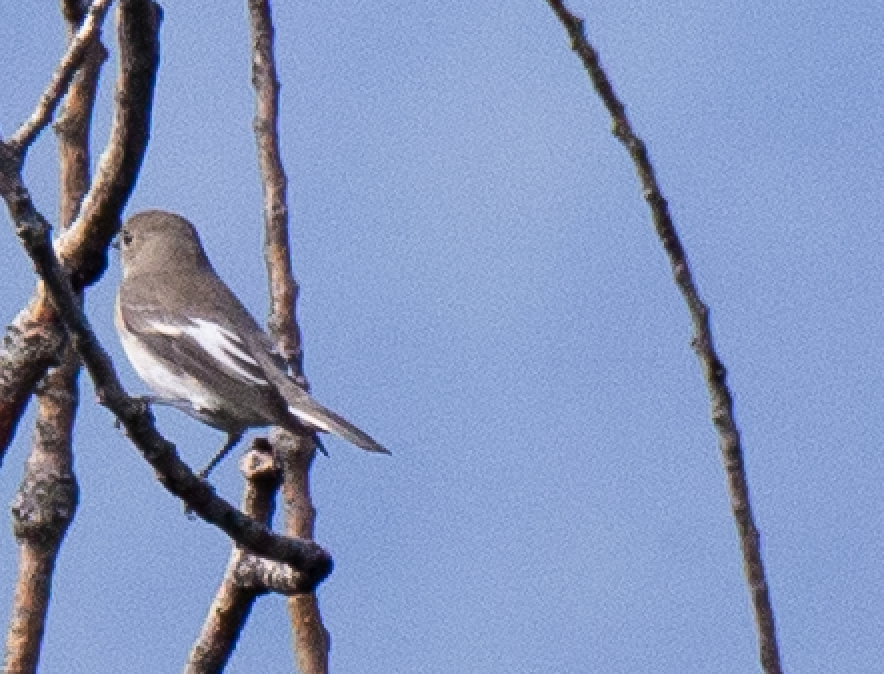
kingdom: Animalia
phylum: Chordata
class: Aves
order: Passeriformes
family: Muscicapidae
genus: Ficedula
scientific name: Ficedula hypoleuca
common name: European pied flycatcher
